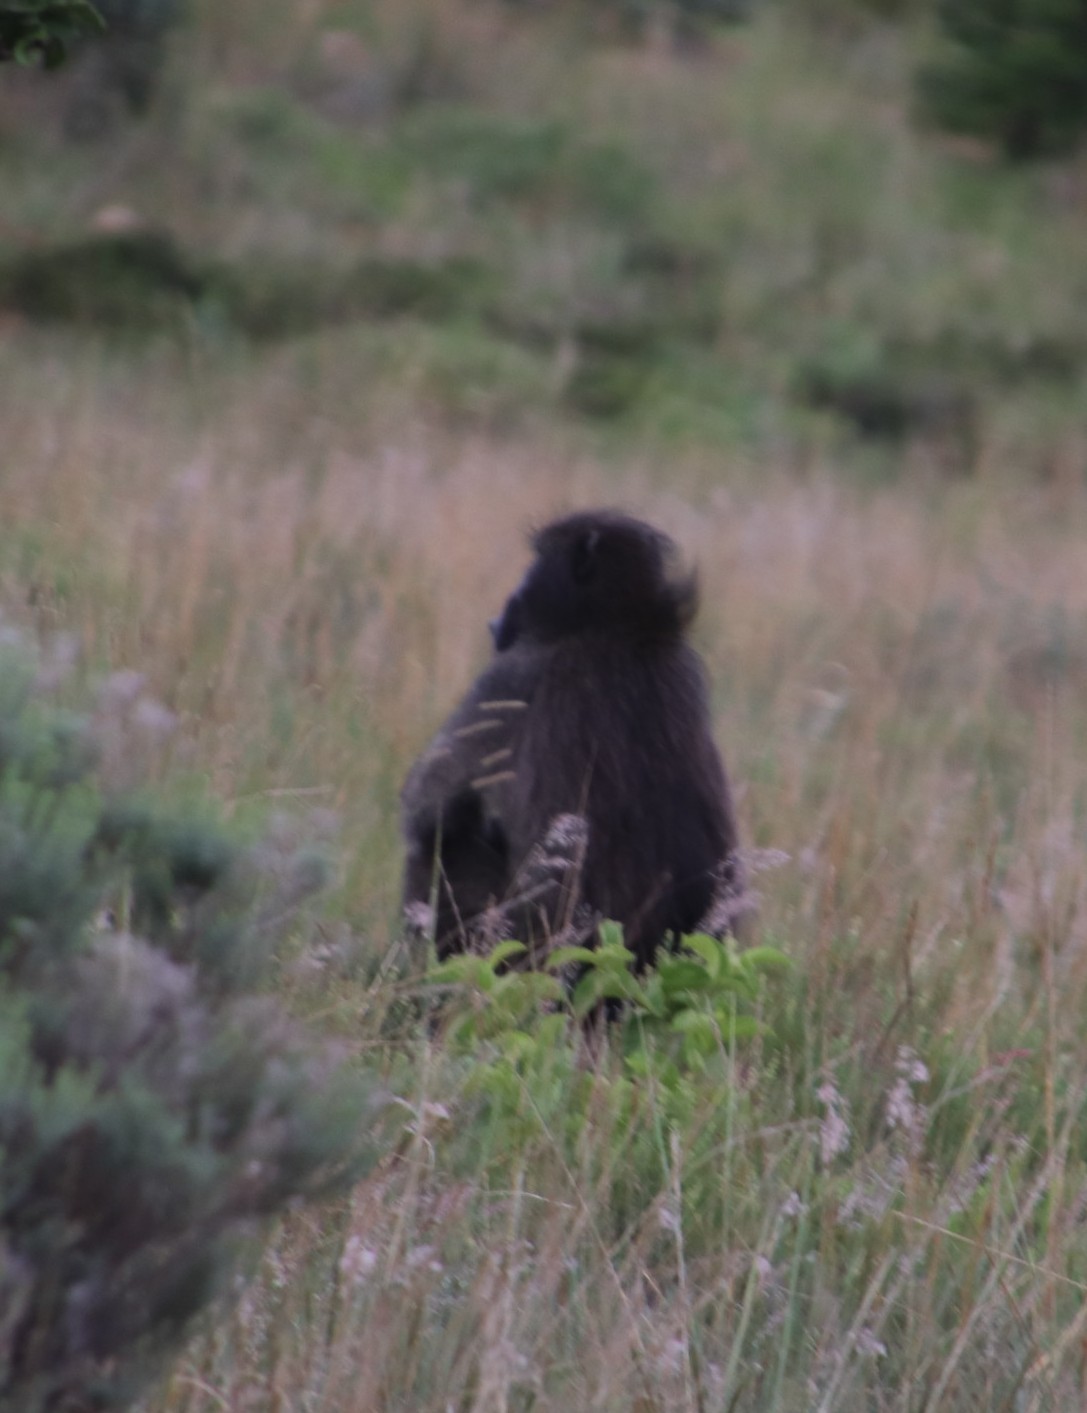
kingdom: Animalia
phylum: Chordata
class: Mammalia
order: Primates
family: Cercopithecidae
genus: Papio
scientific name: Papio ursinus
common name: Chacma baboon
